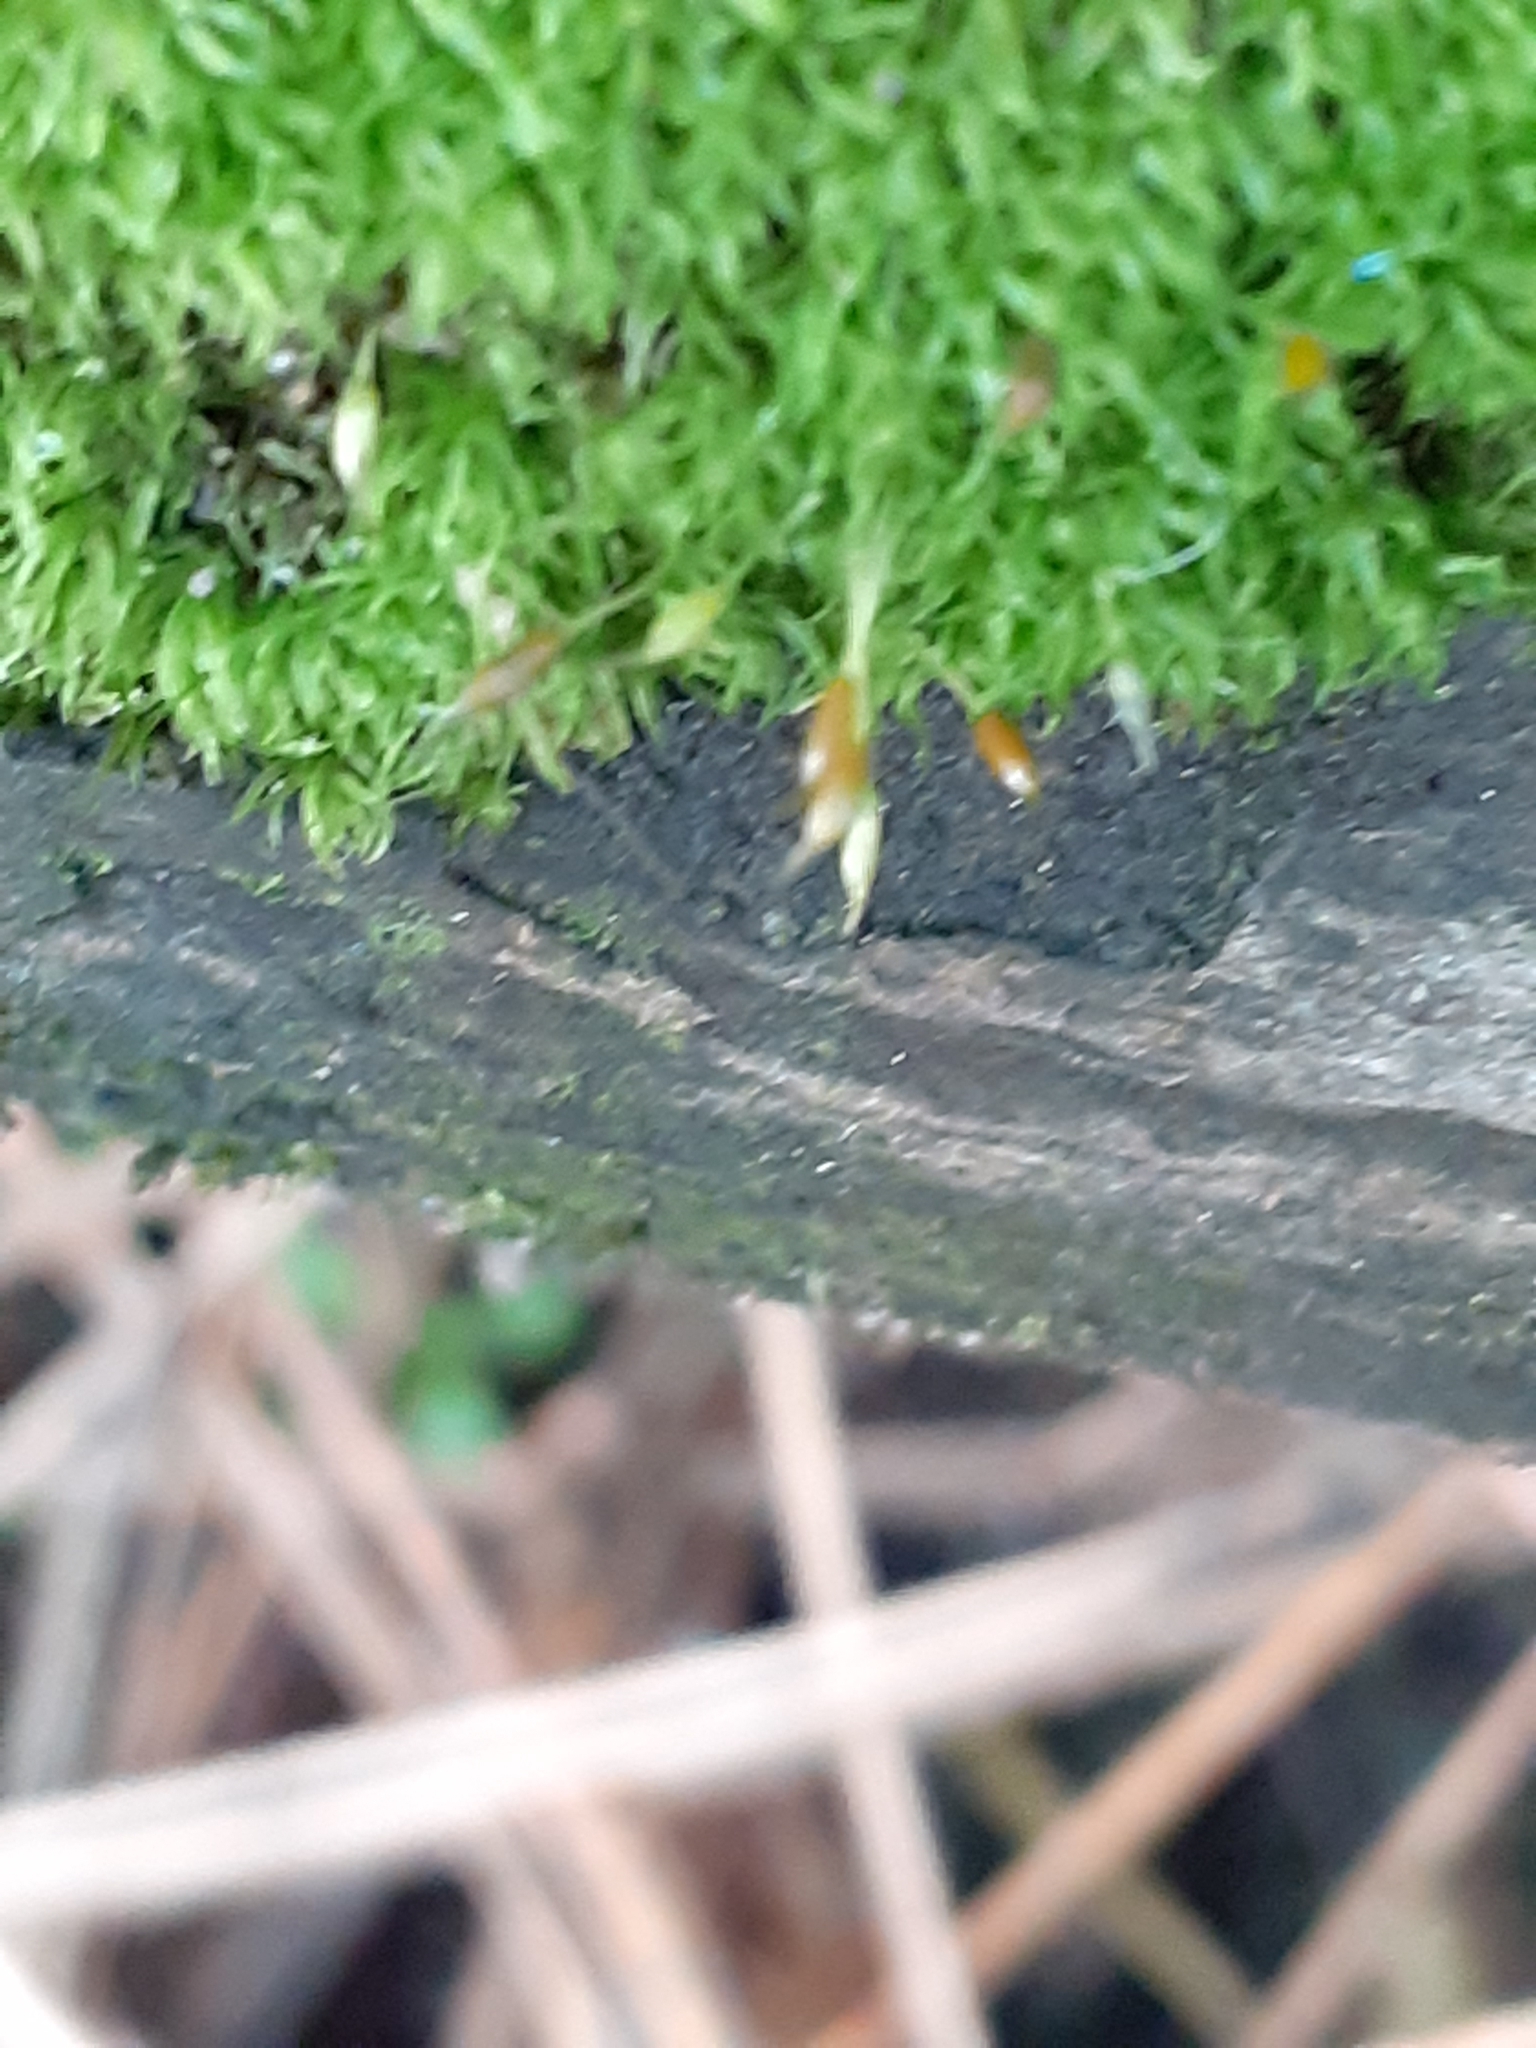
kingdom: Plantae
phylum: Bryophyta
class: Bryopsida
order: Dicranales
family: Rhabdoweisiaceae
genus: Dicranoweisia
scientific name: Dicranoweisia cirrata
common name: Common pincushion
